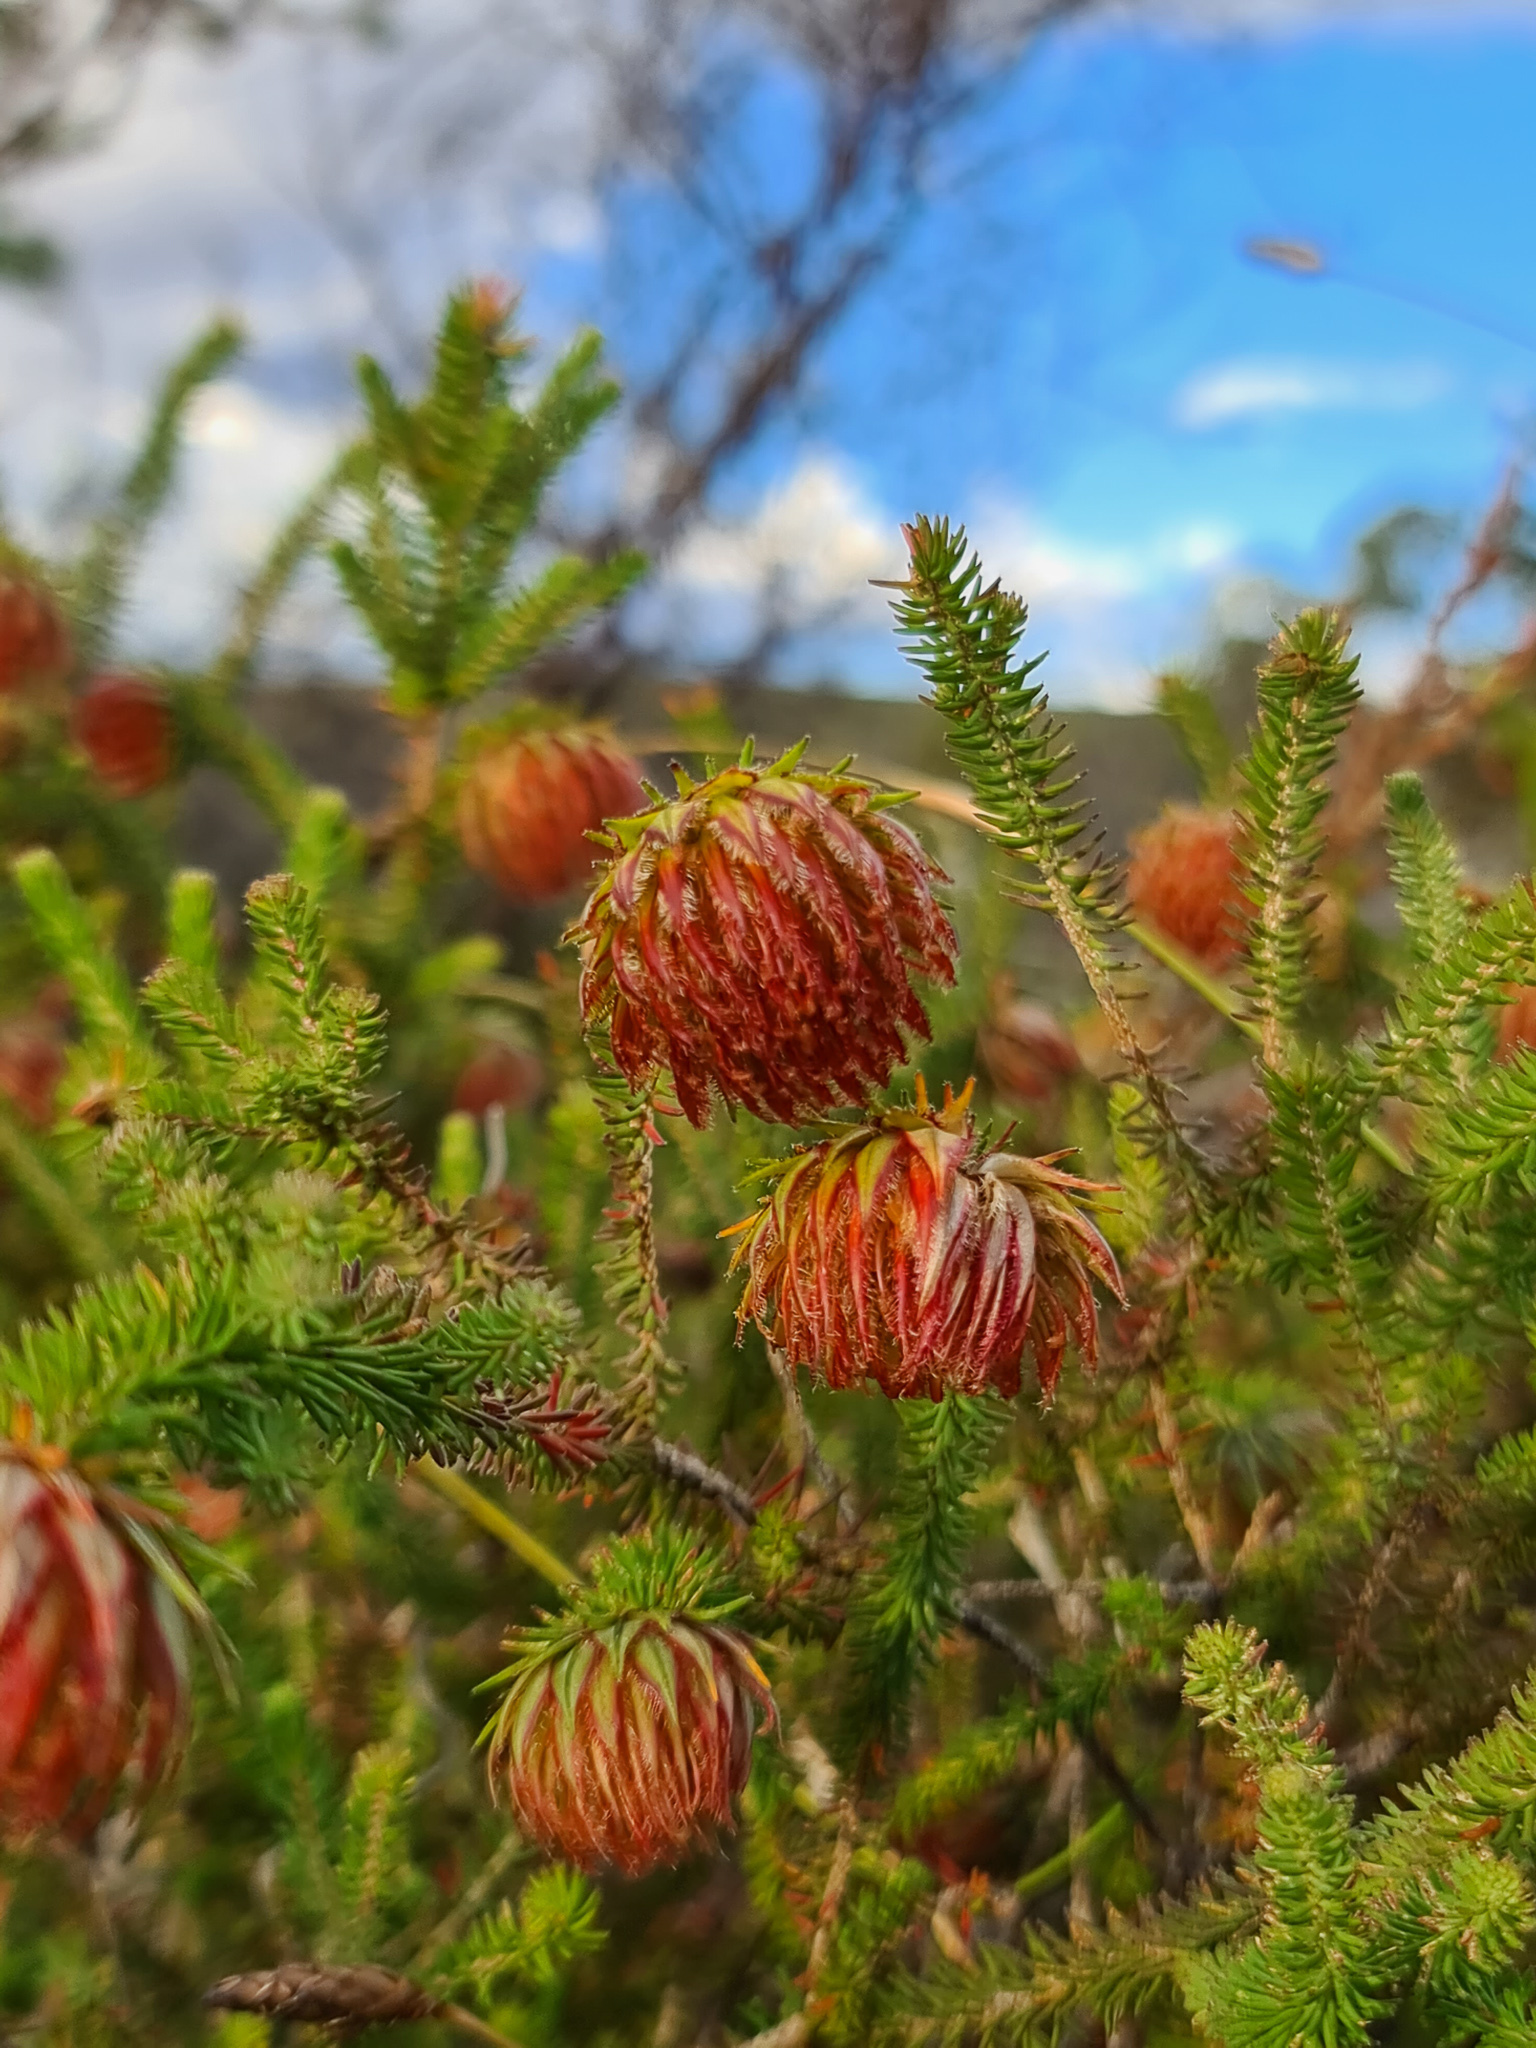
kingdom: Plantae
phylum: Tracheophyta
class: Magnoliopsida
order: Myrtales
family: Myrtaceae
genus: Darwinia
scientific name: Darwinia neildiana
